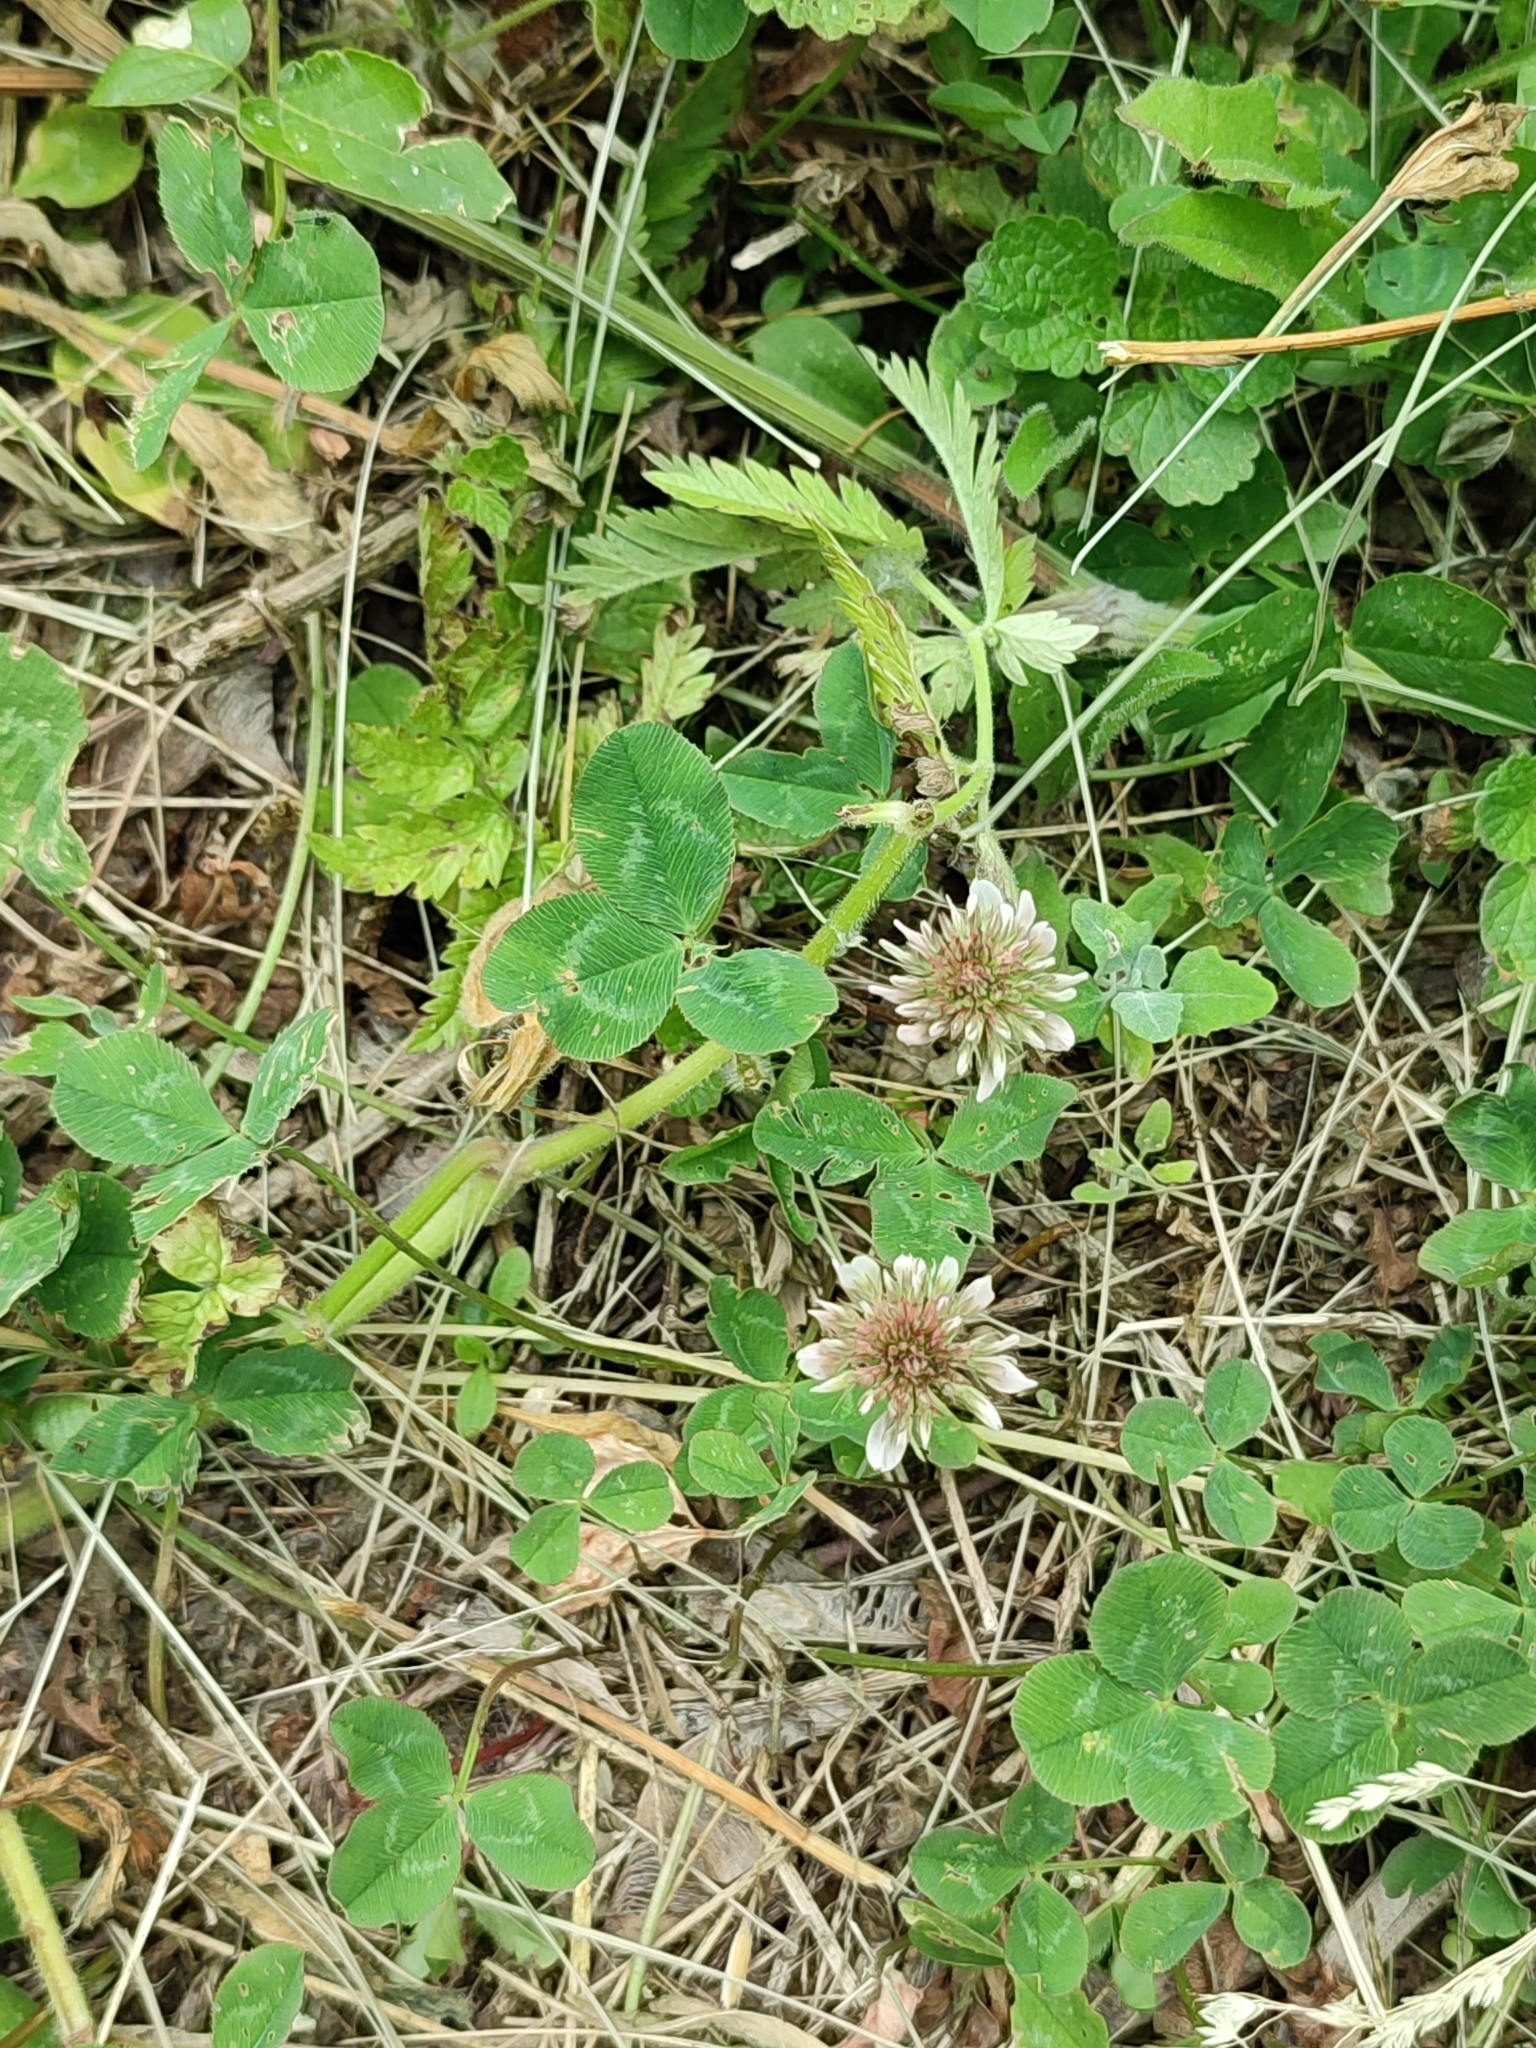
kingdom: Plantae
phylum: Tracheophyta
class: Magnoliopsida
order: Fabales
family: Fabaceae
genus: Trifolium
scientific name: Trifolium repens
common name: White clover
